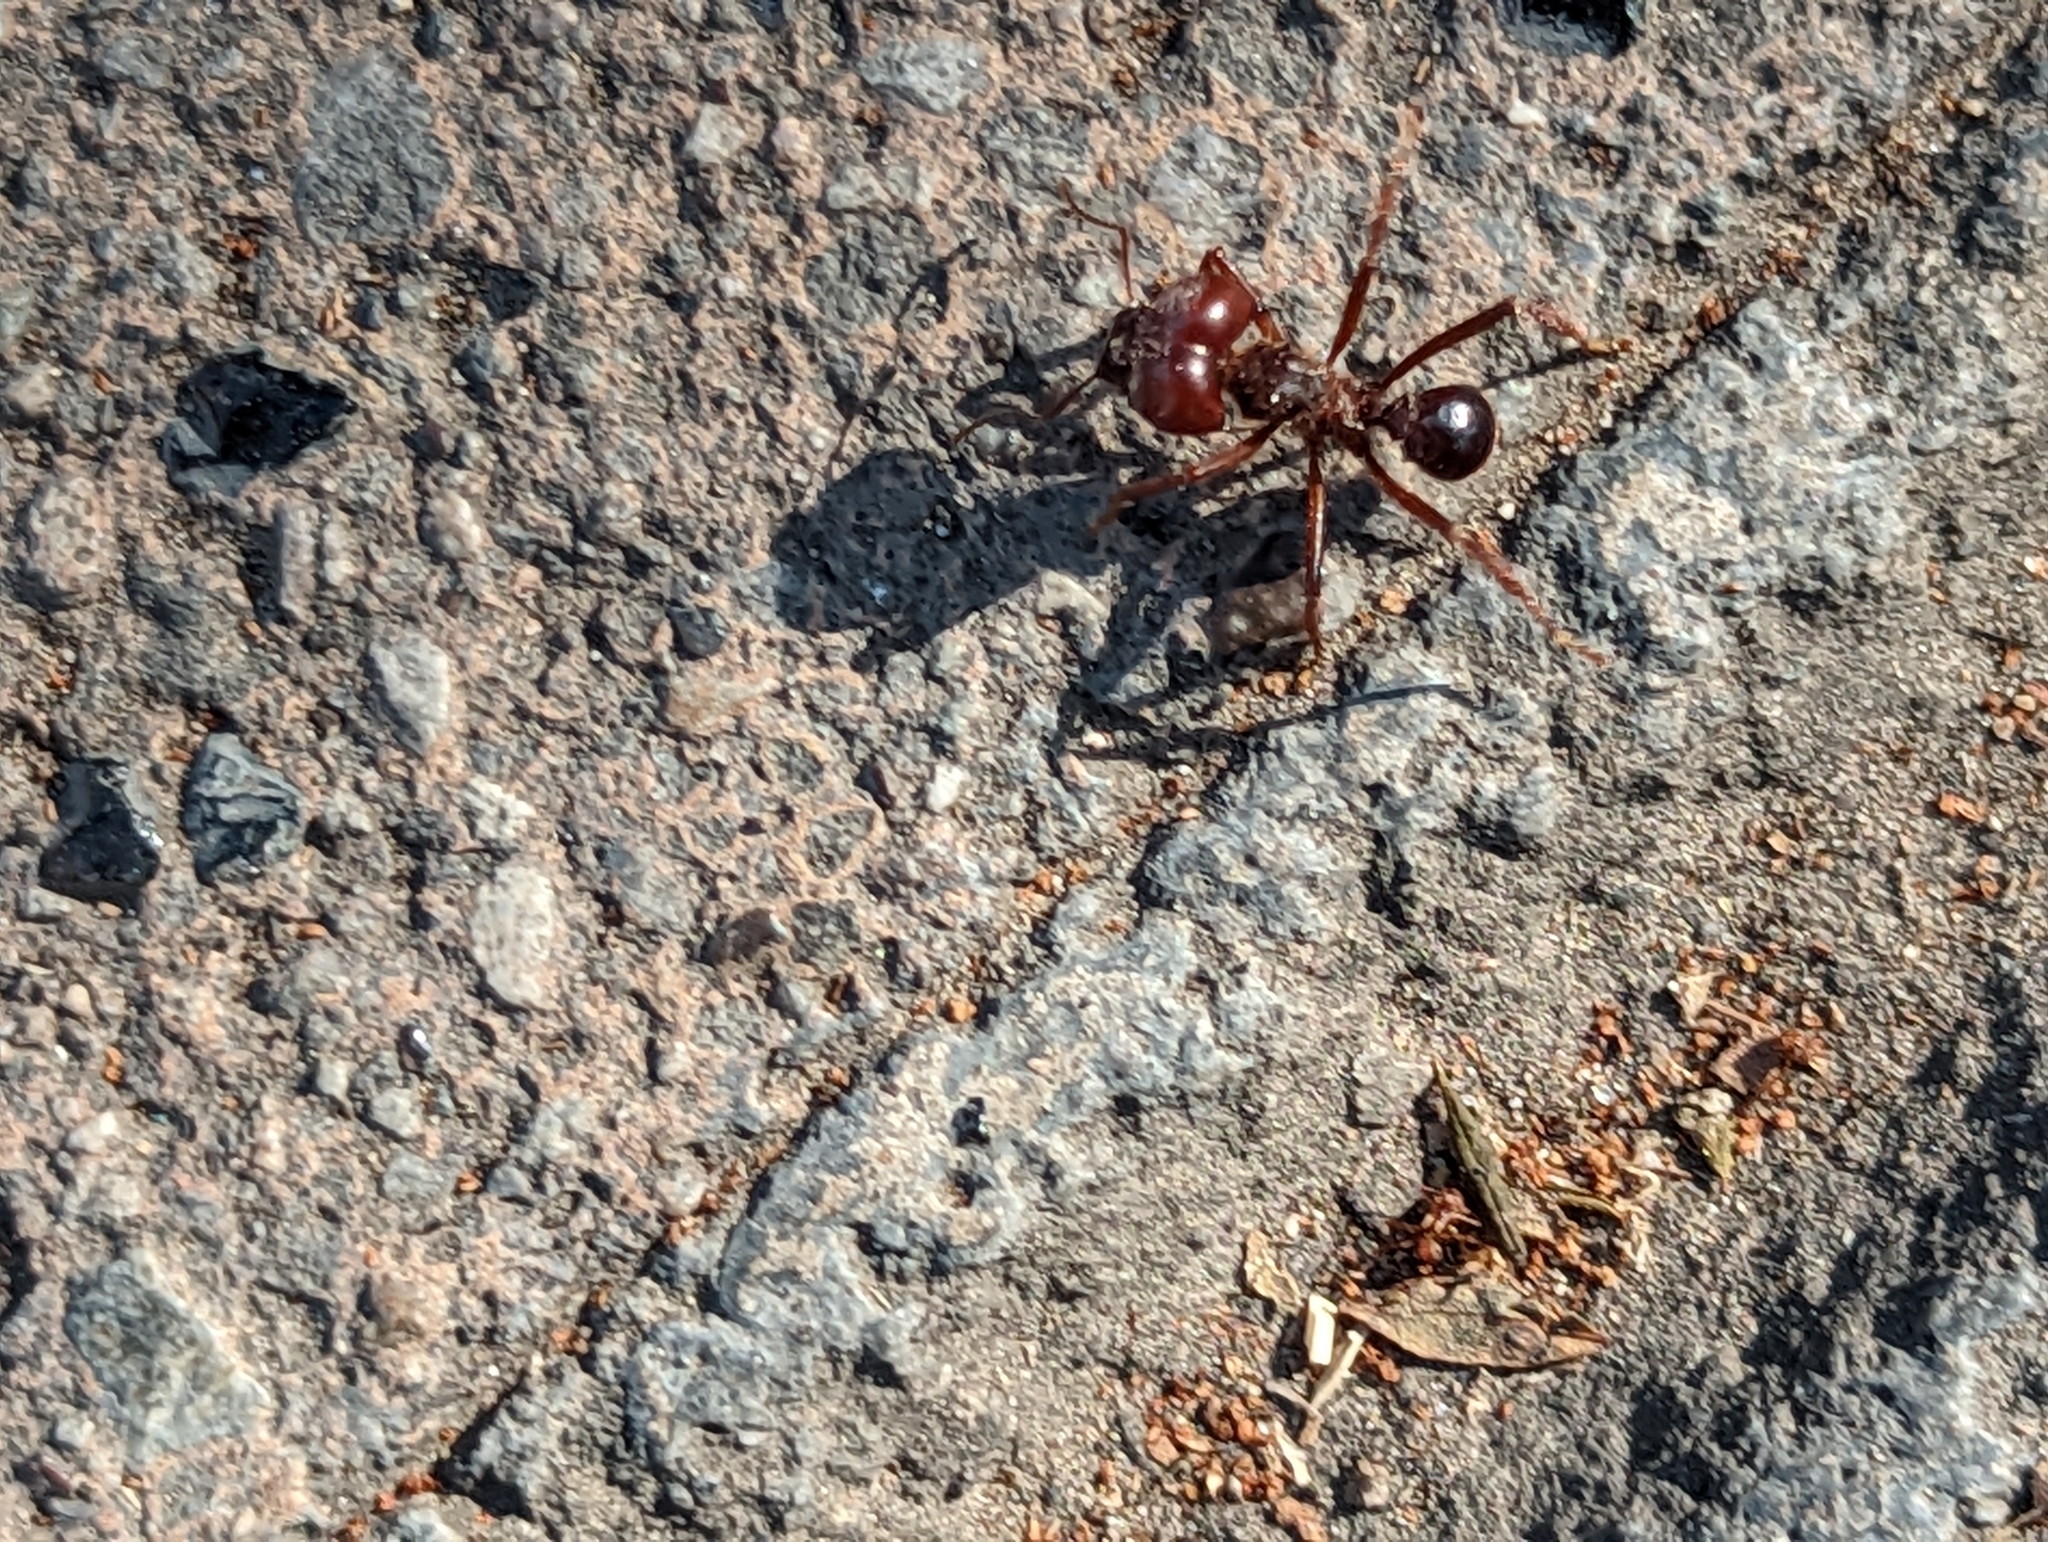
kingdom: Animalia
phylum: Arthropoda
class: Insecta
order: Hymenoptera
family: Formicidae
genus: Atta
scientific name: Atta mexicana
